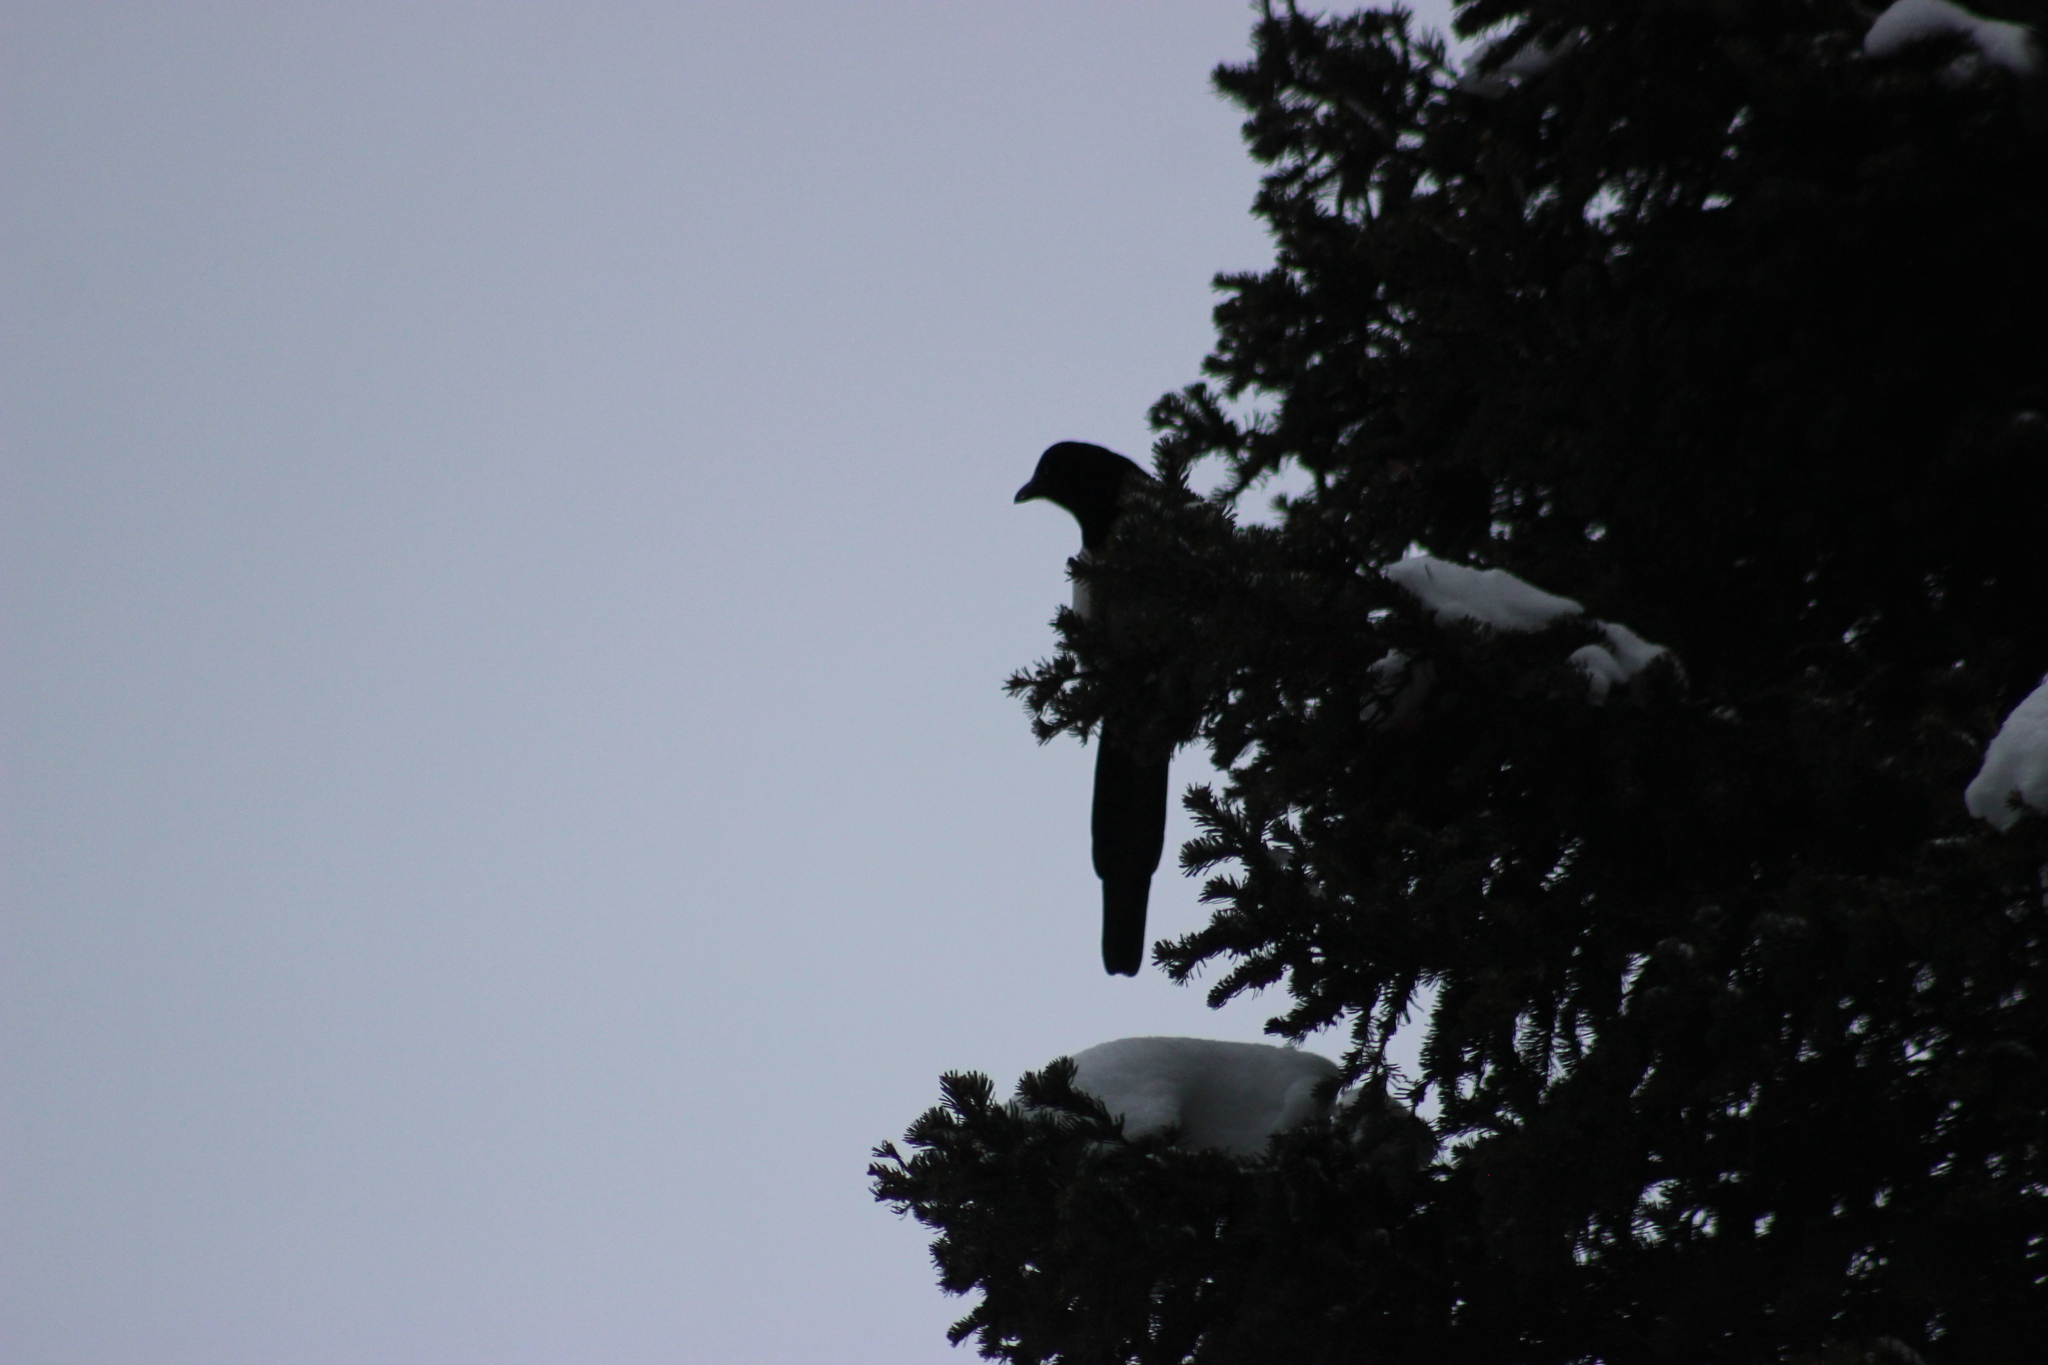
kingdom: Animalia
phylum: Chordata
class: Aves
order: Passeriformes
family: Corvidae
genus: Pica
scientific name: Pica pica
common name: Eurasian magpie
